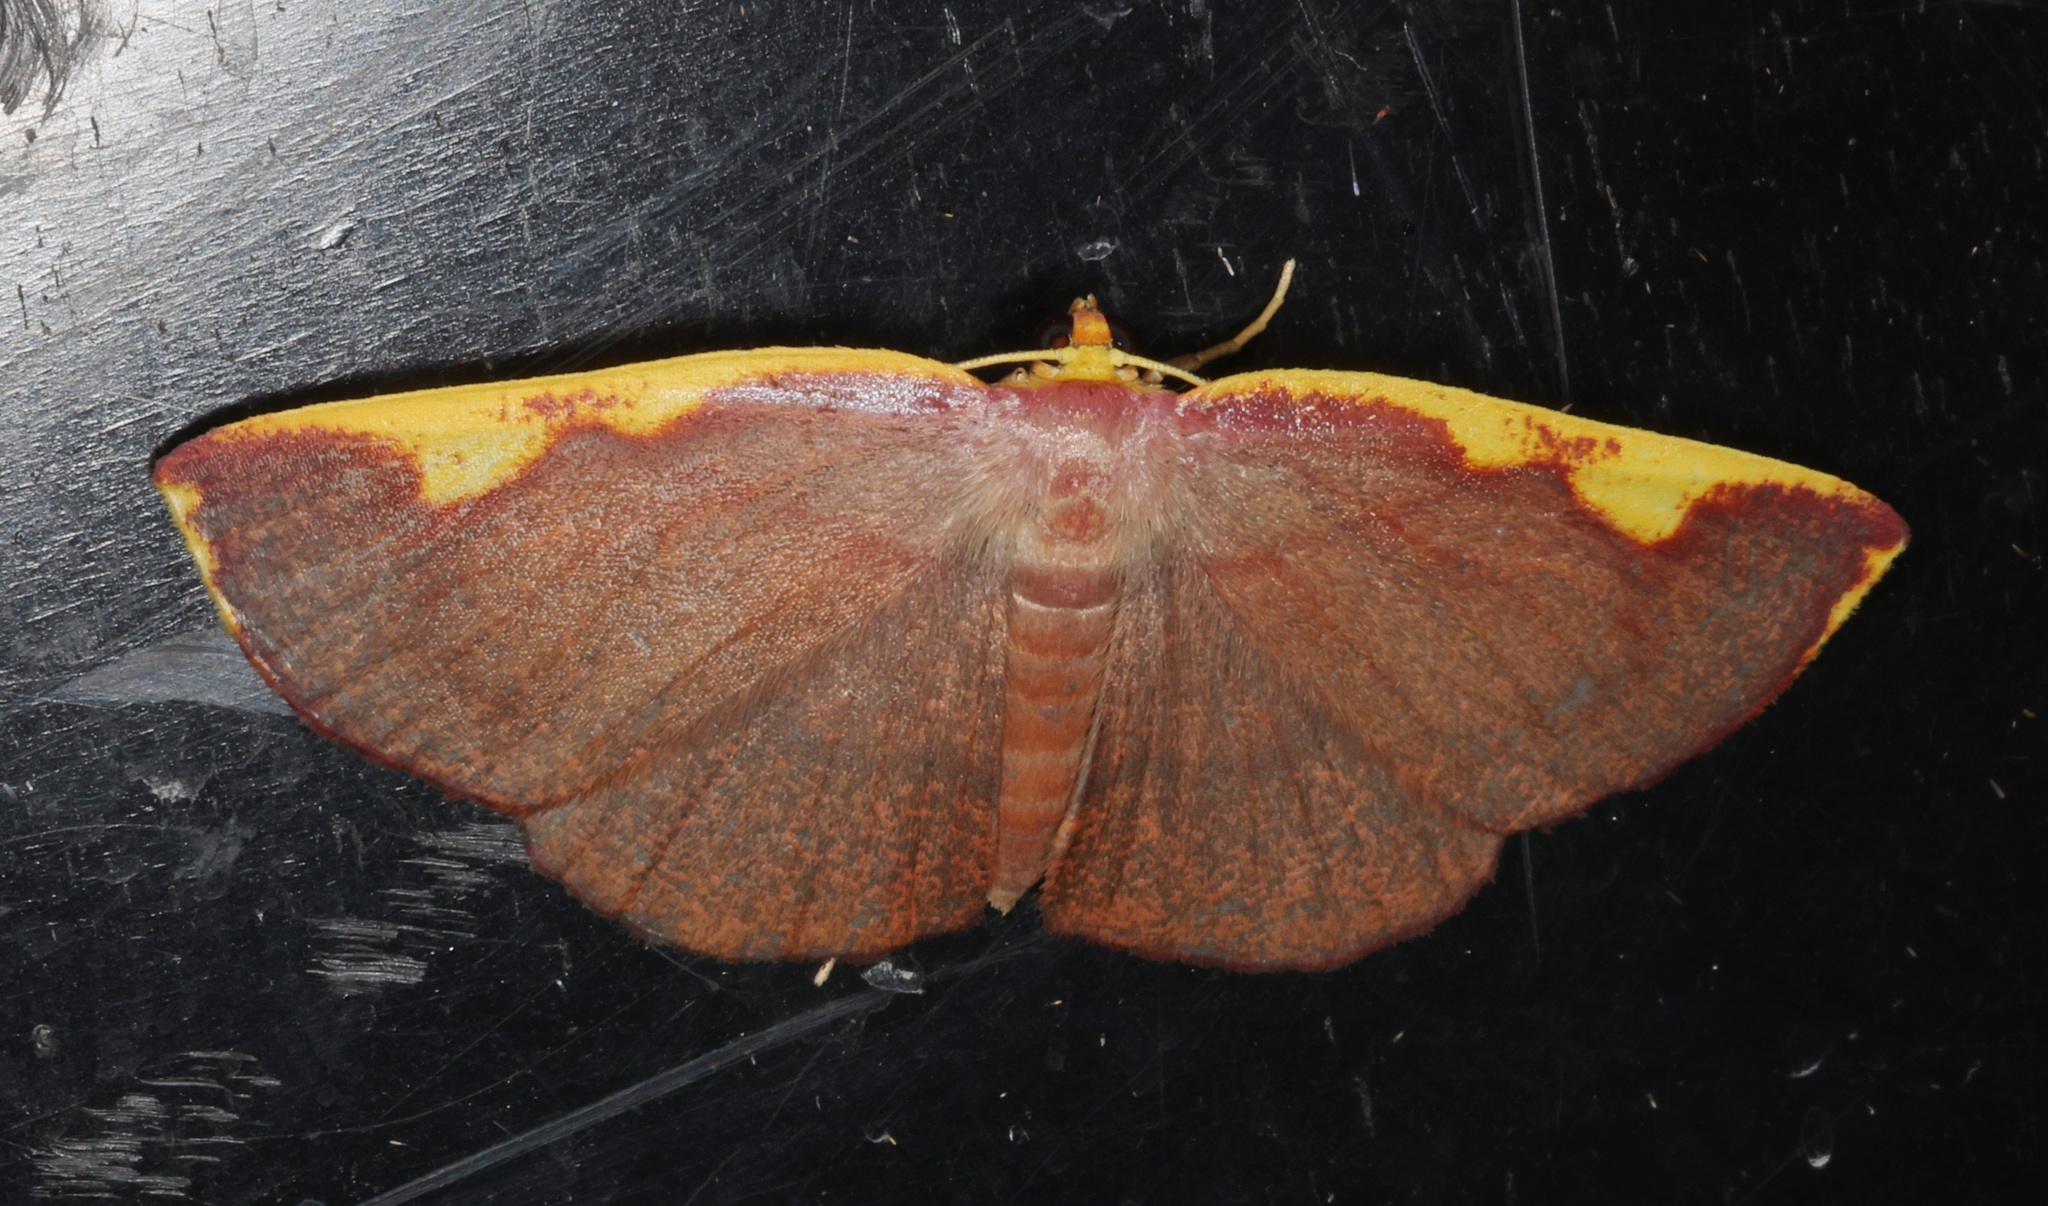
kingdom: Animalia
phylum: Arthropoda
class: Insecta
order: Lepidoptera
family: Geometridae
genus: Nothomiza
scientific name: Nothomiza flavicosta
